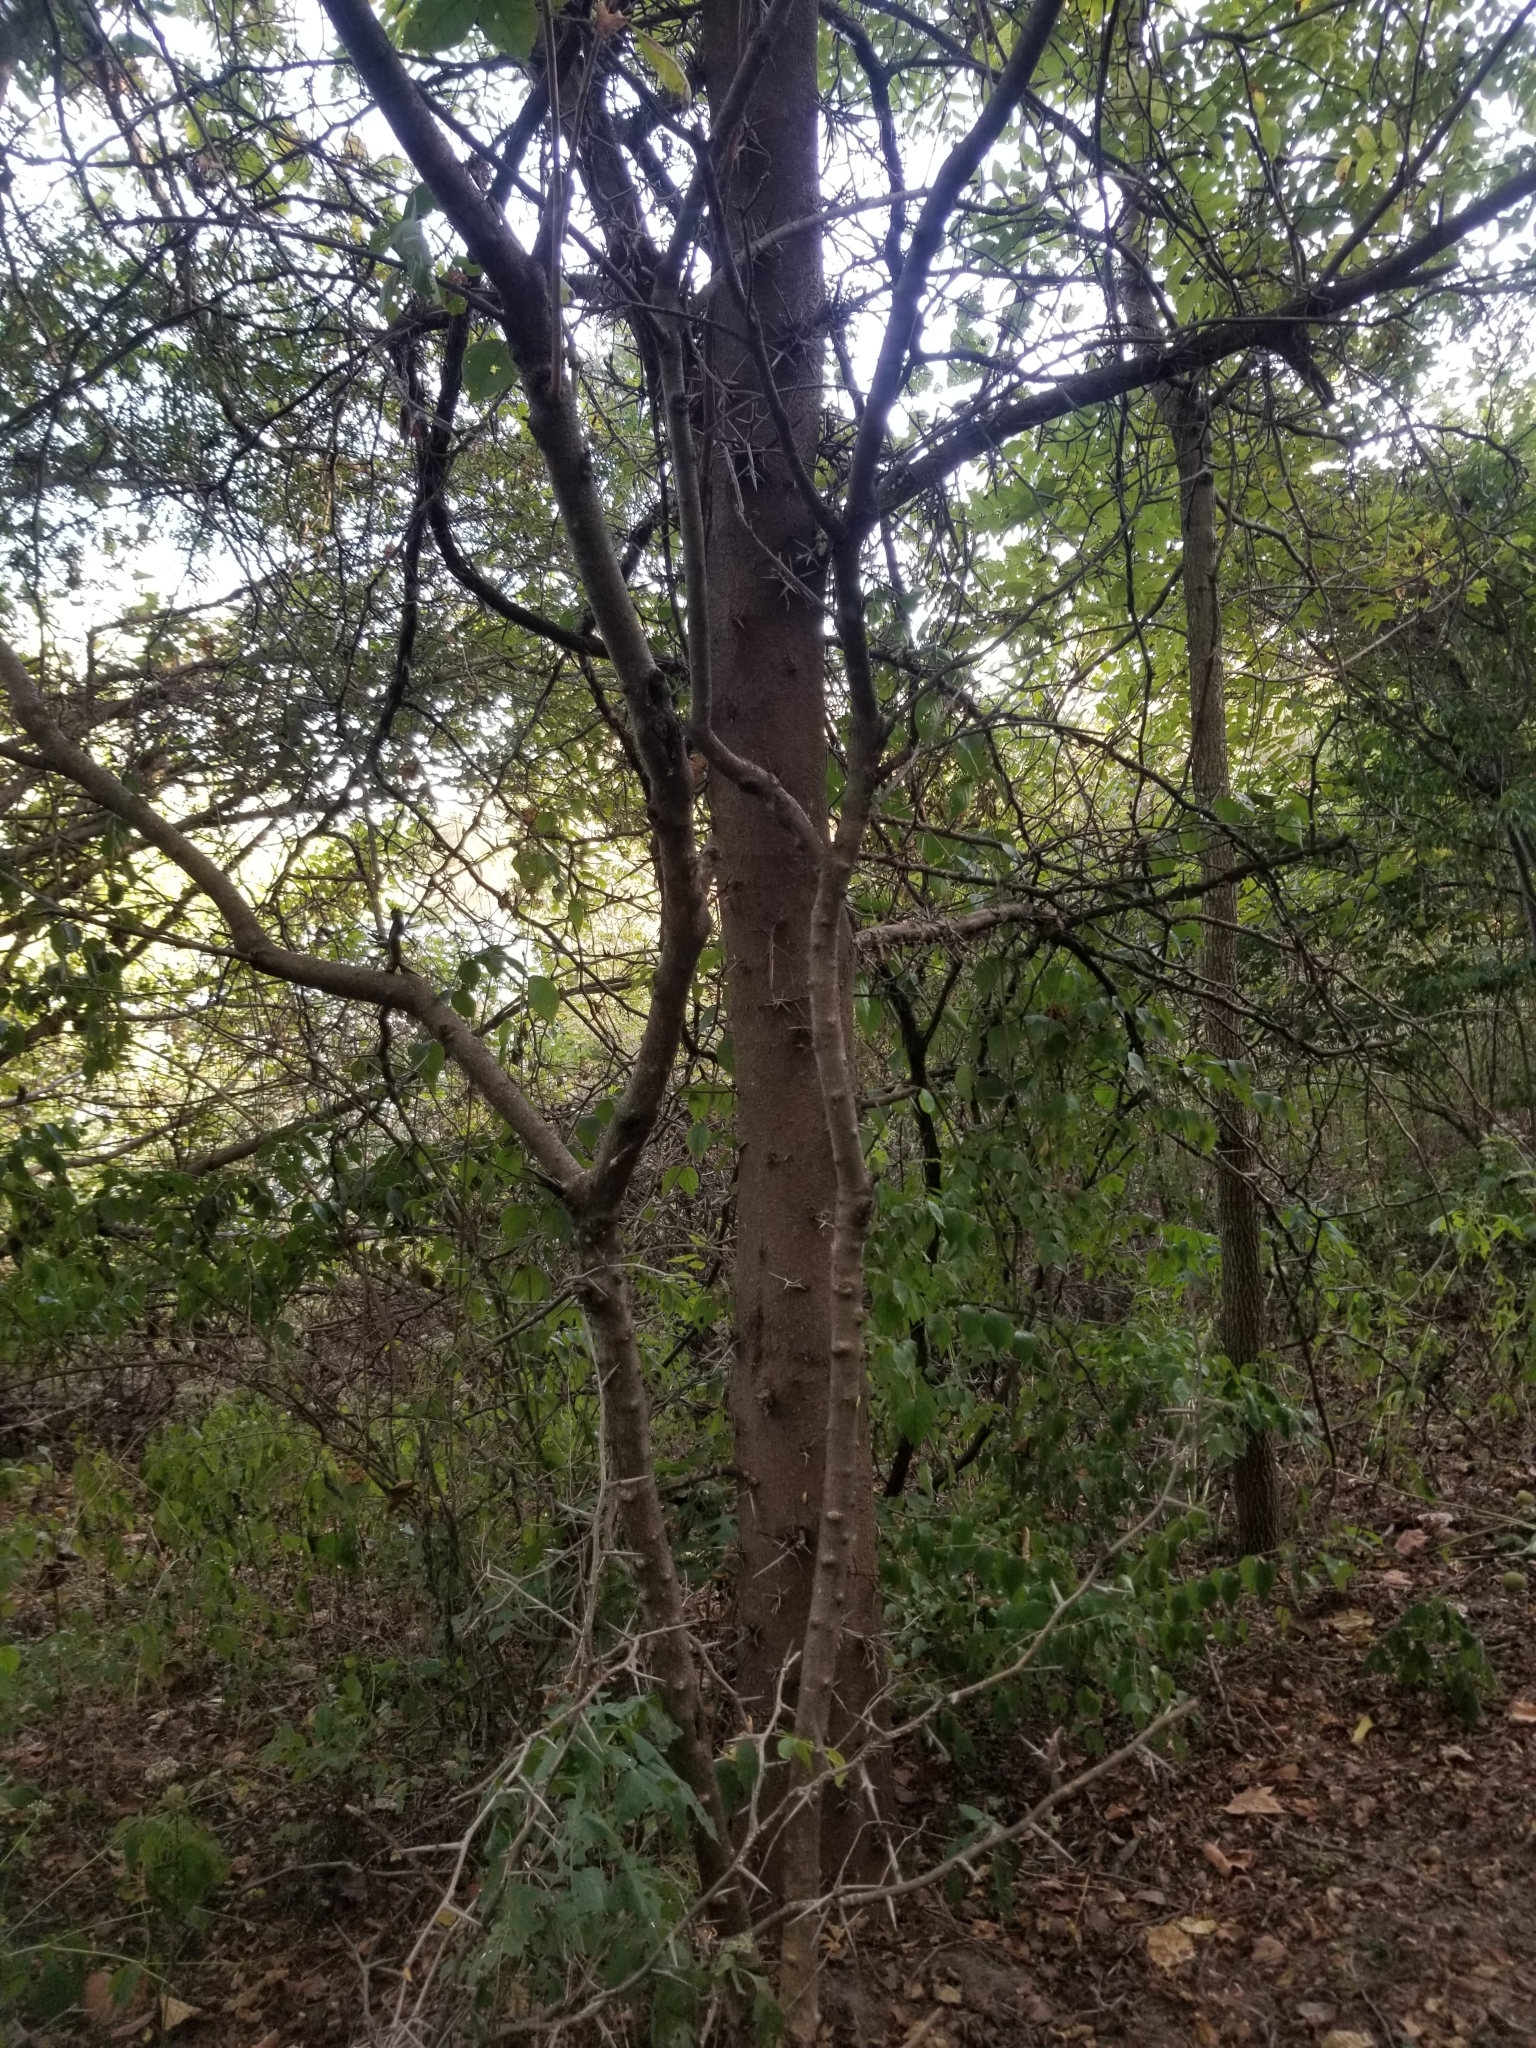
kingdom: Plantae
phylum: Tracheophyta
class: Magnoliopsida
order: Fabales
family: Fabaceae
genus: Gleditsia
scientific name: Gleditsia triacanthos
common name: Common honeylocust
